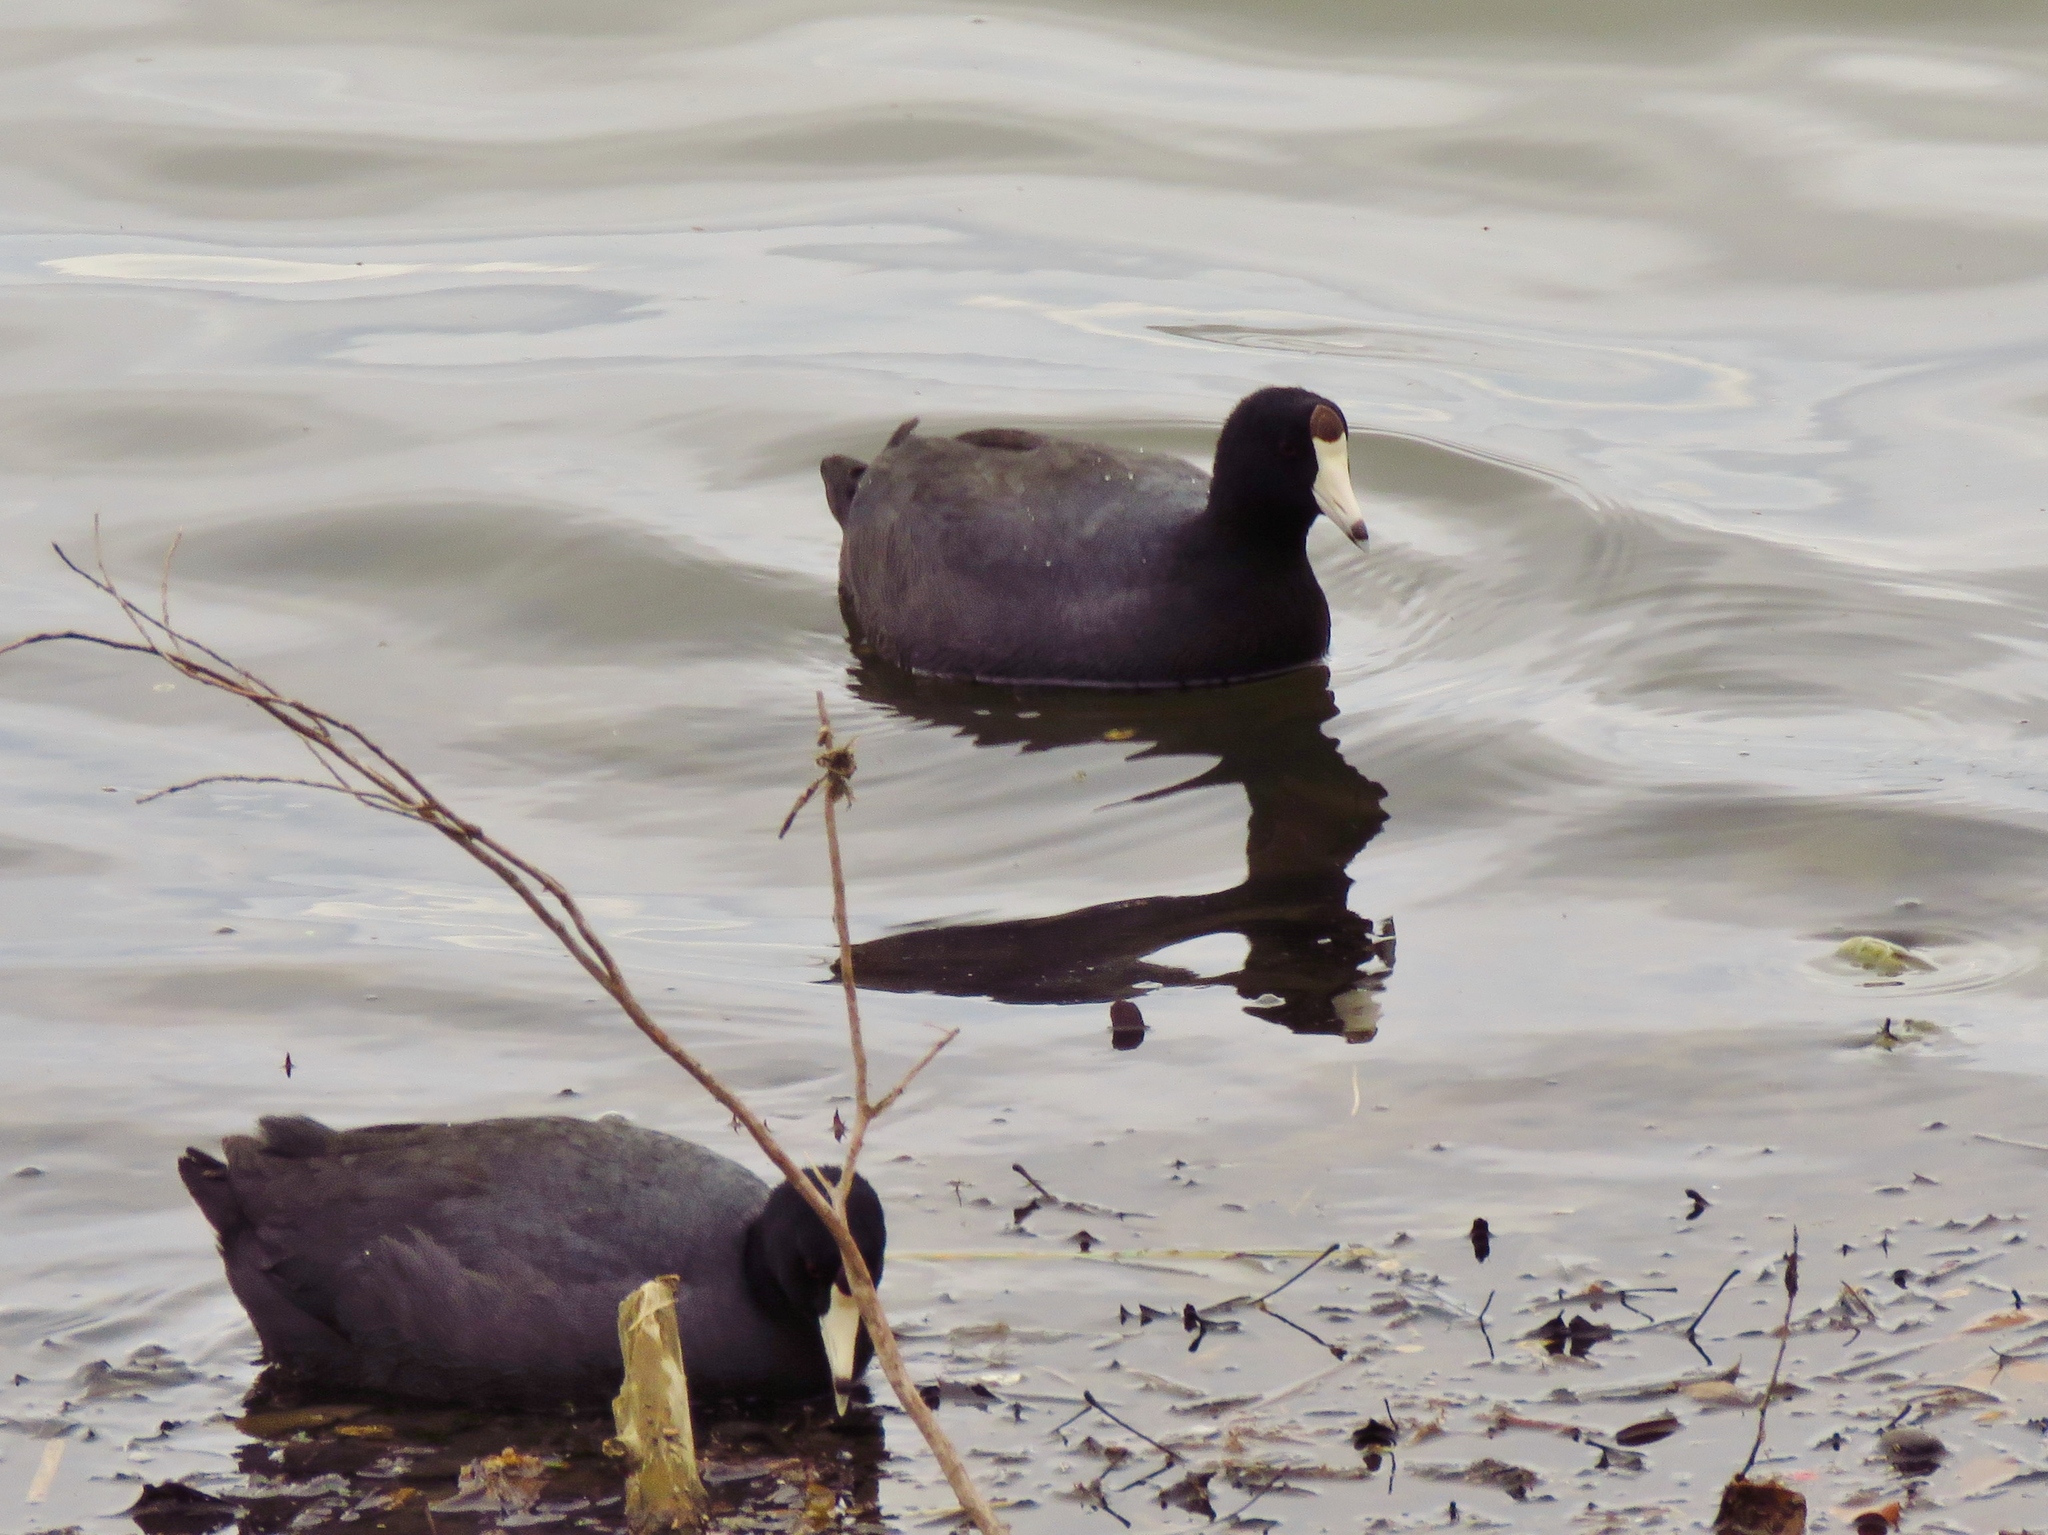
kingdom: Animalia
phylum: Chordata
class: Aves
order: Gruiformes
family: Rallidae
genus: Fulica
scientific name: Fulica americana
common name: American coot
